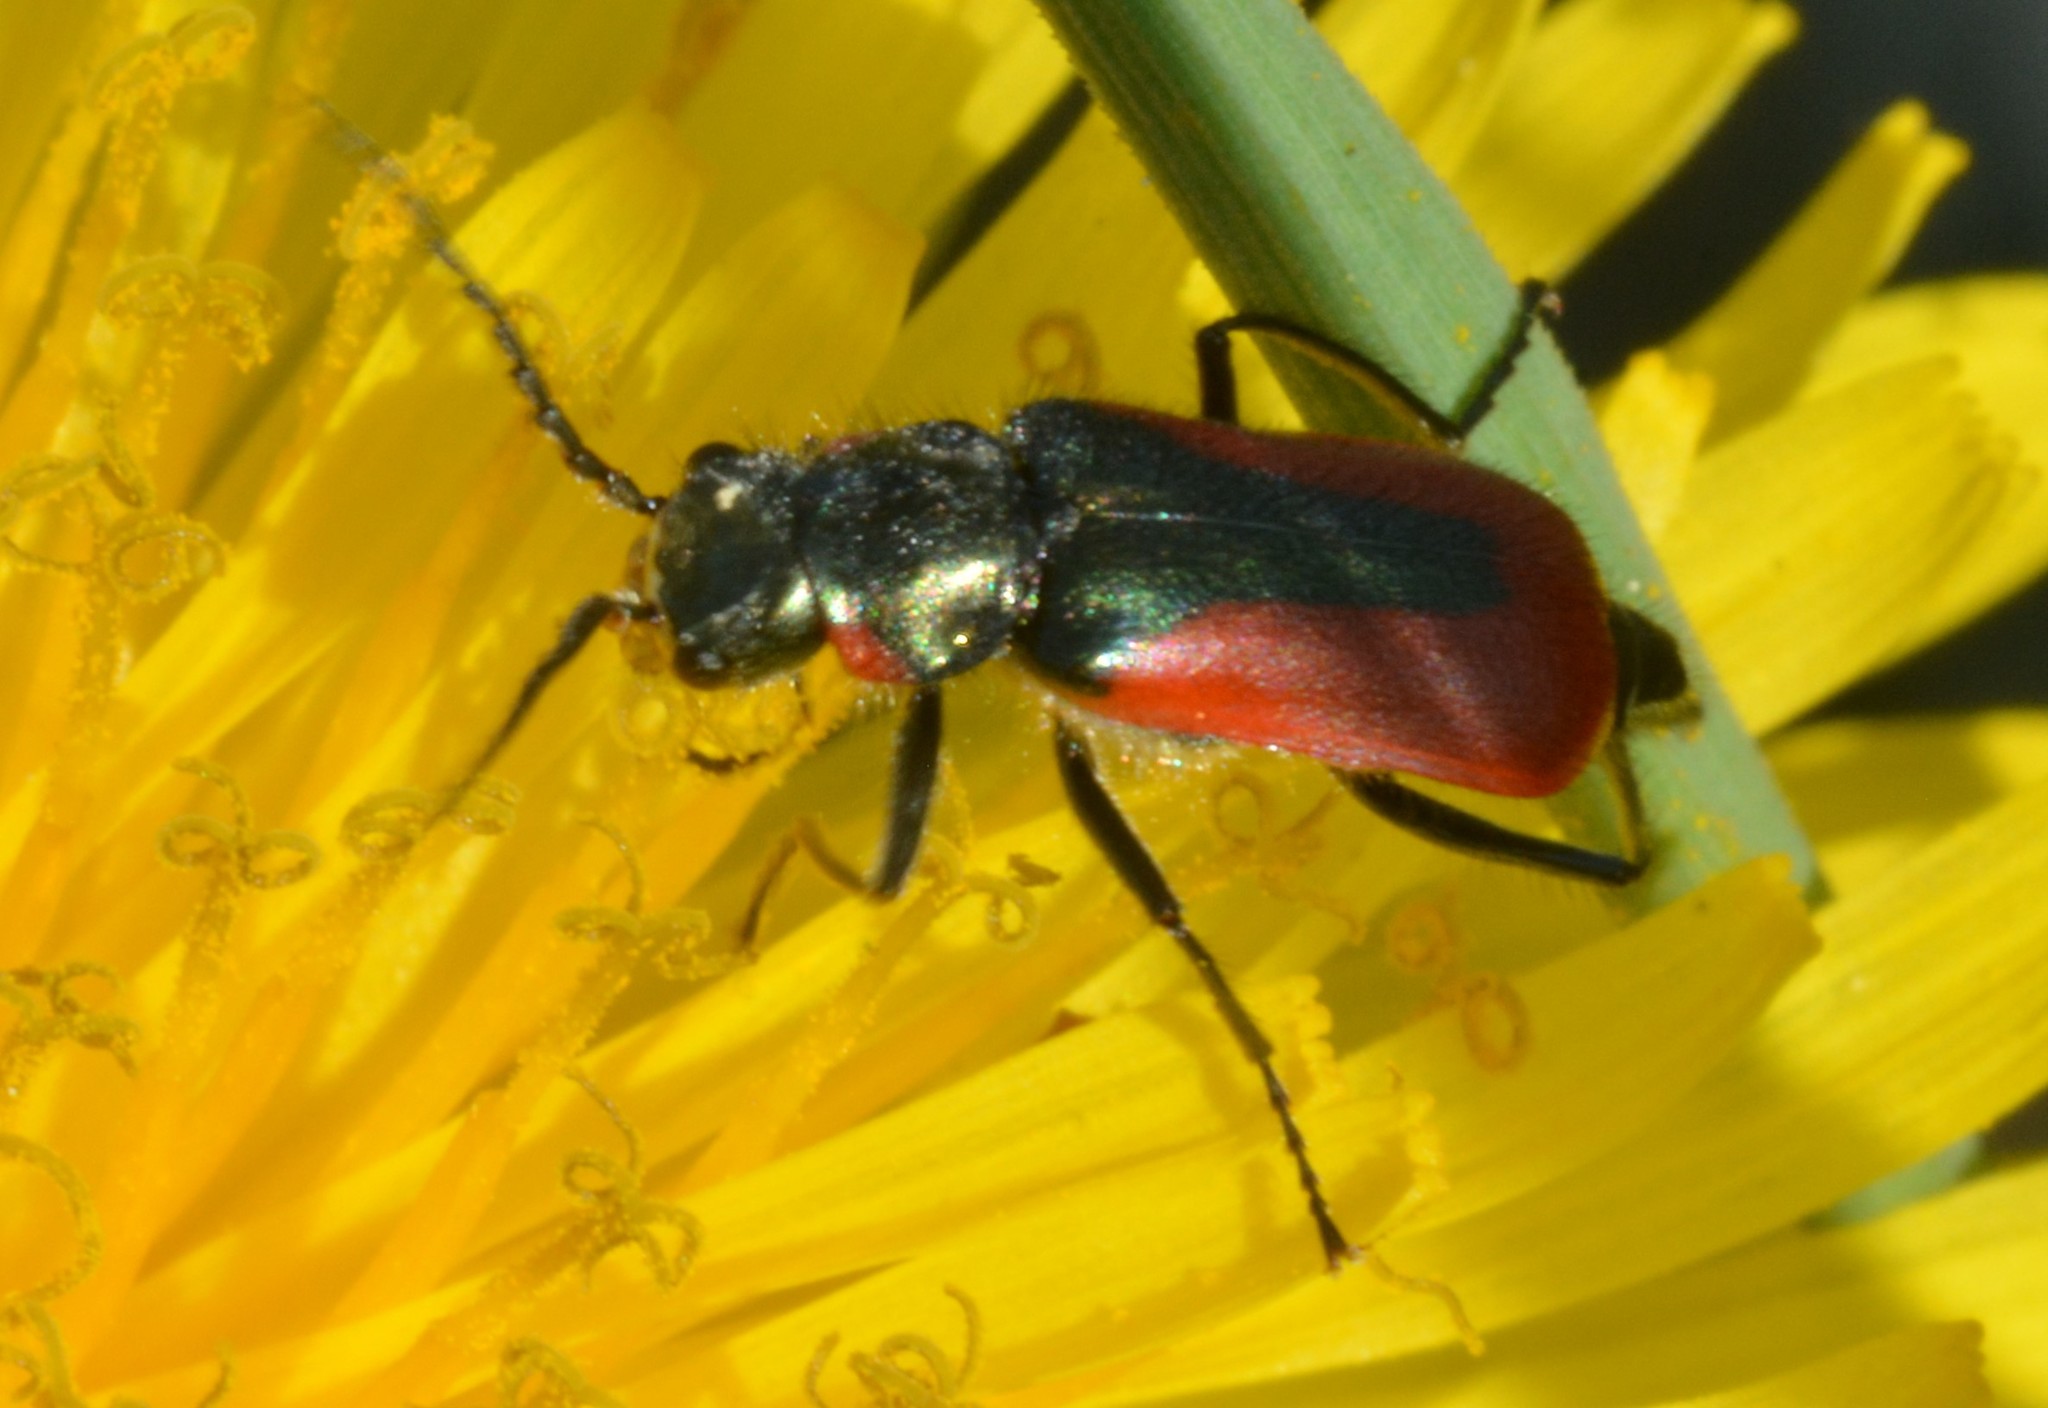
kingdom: Animalia
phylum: Arthropoda
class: Insecta
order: Coleoptera
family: Melyridae
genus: Malachius
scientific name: Malachius aeneus
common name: Scarlet malachite beetle
